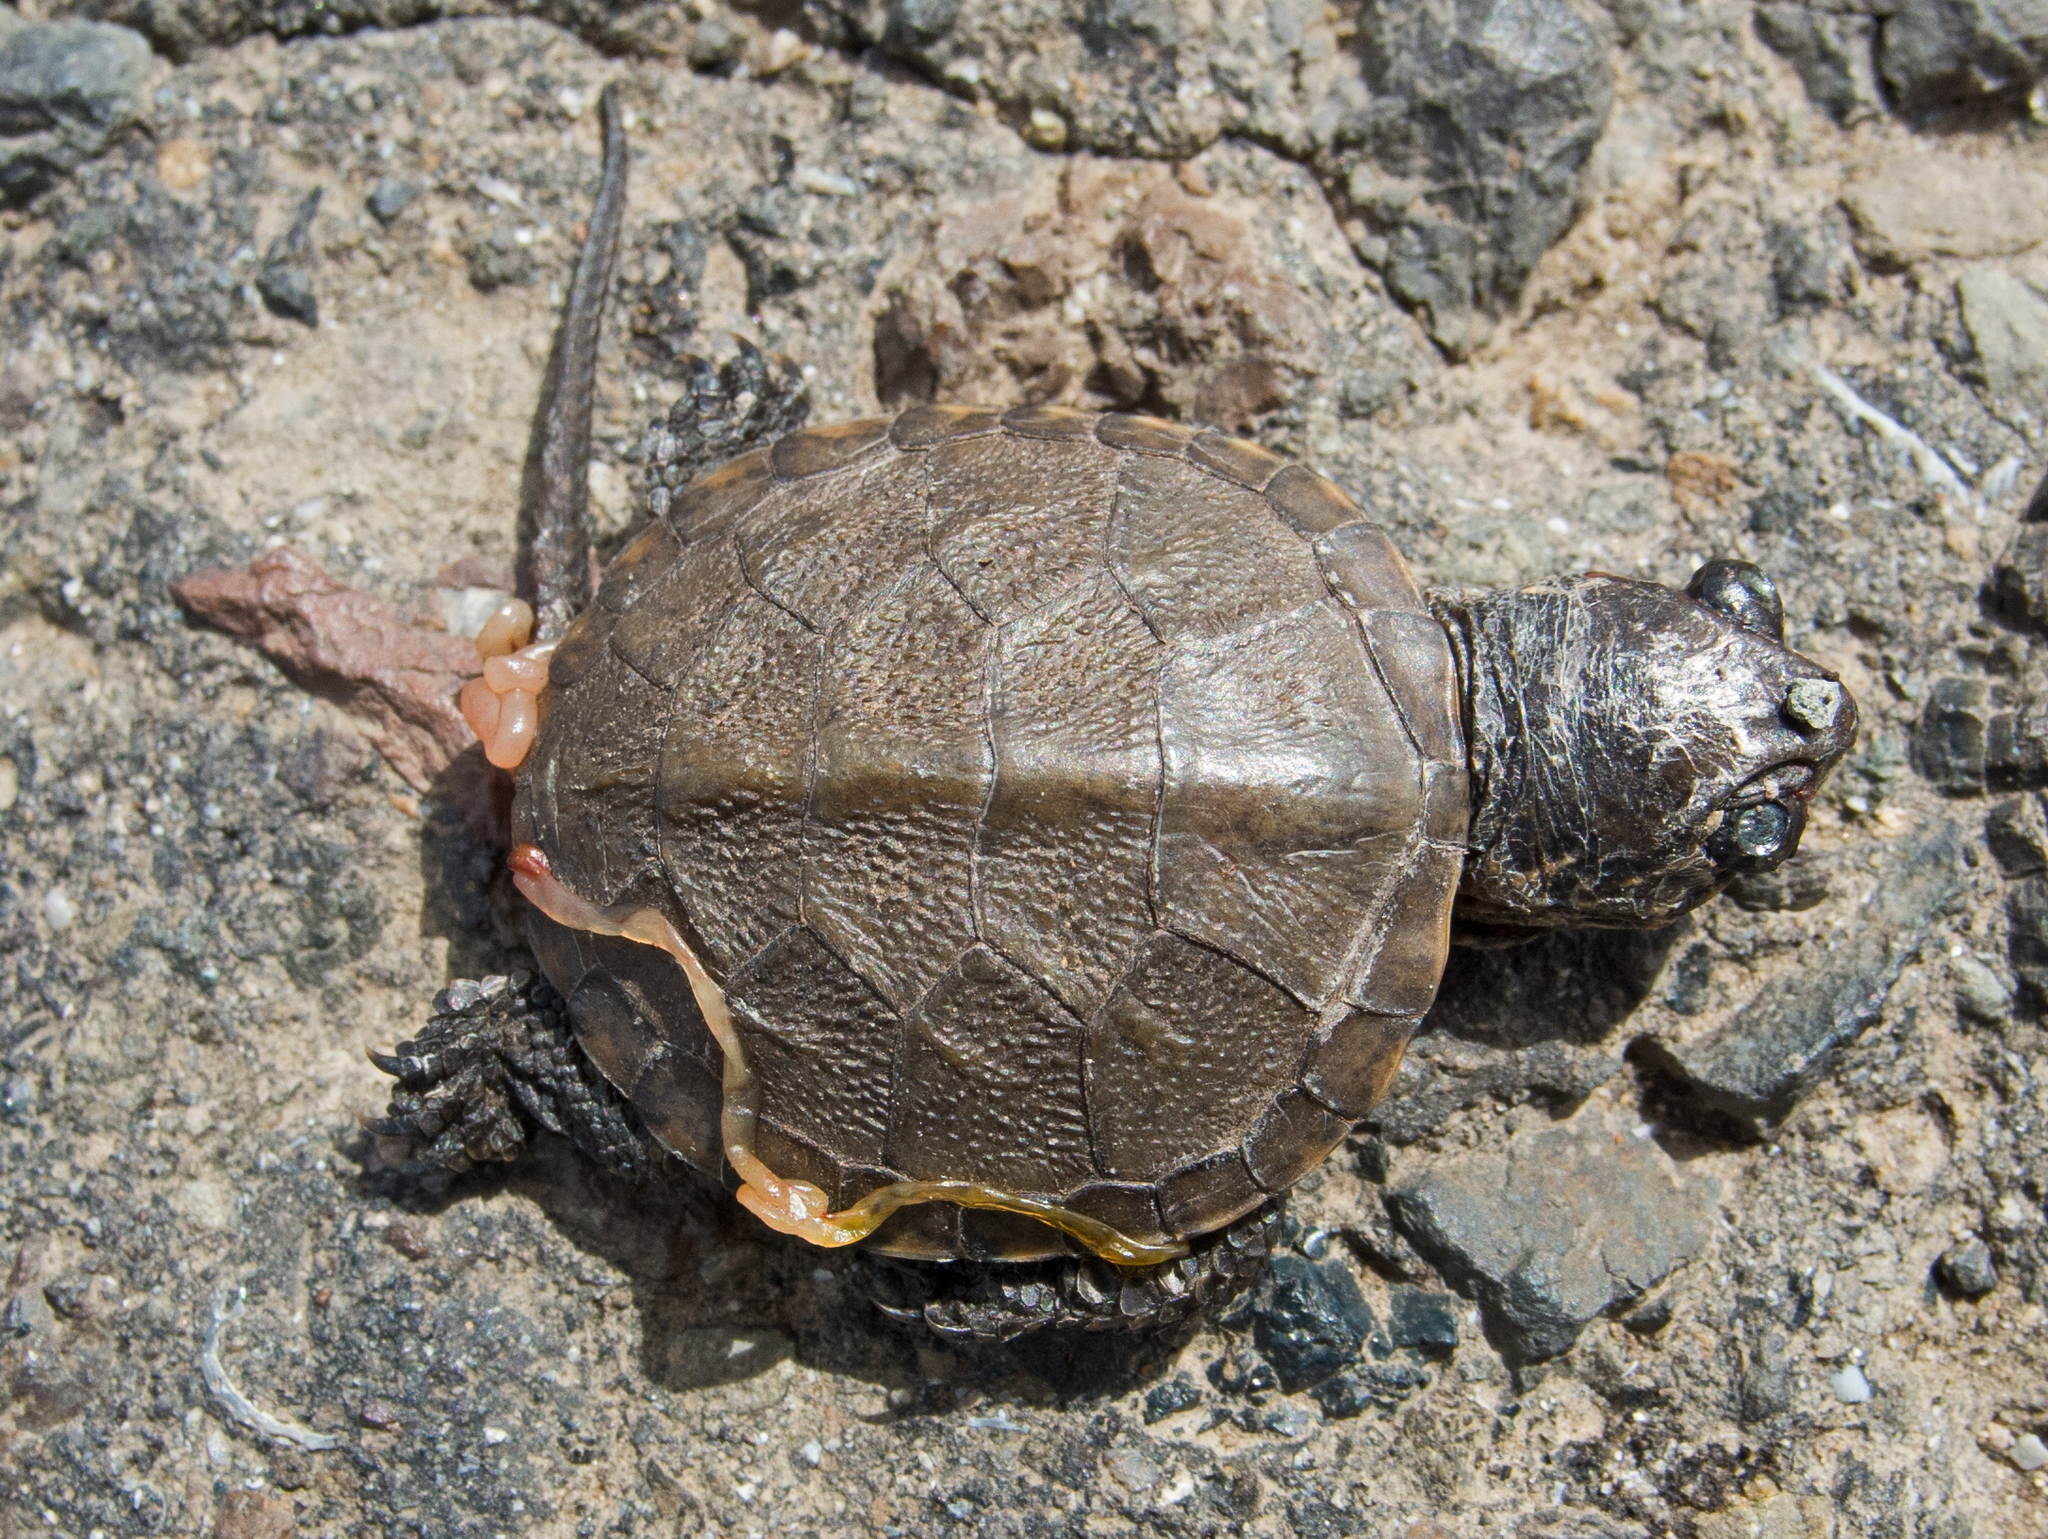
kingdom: Animalia
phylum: Chordata
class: Testudines
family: Emydidae
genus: Emys
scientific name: Emys orbicularis
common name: European pond turtle
